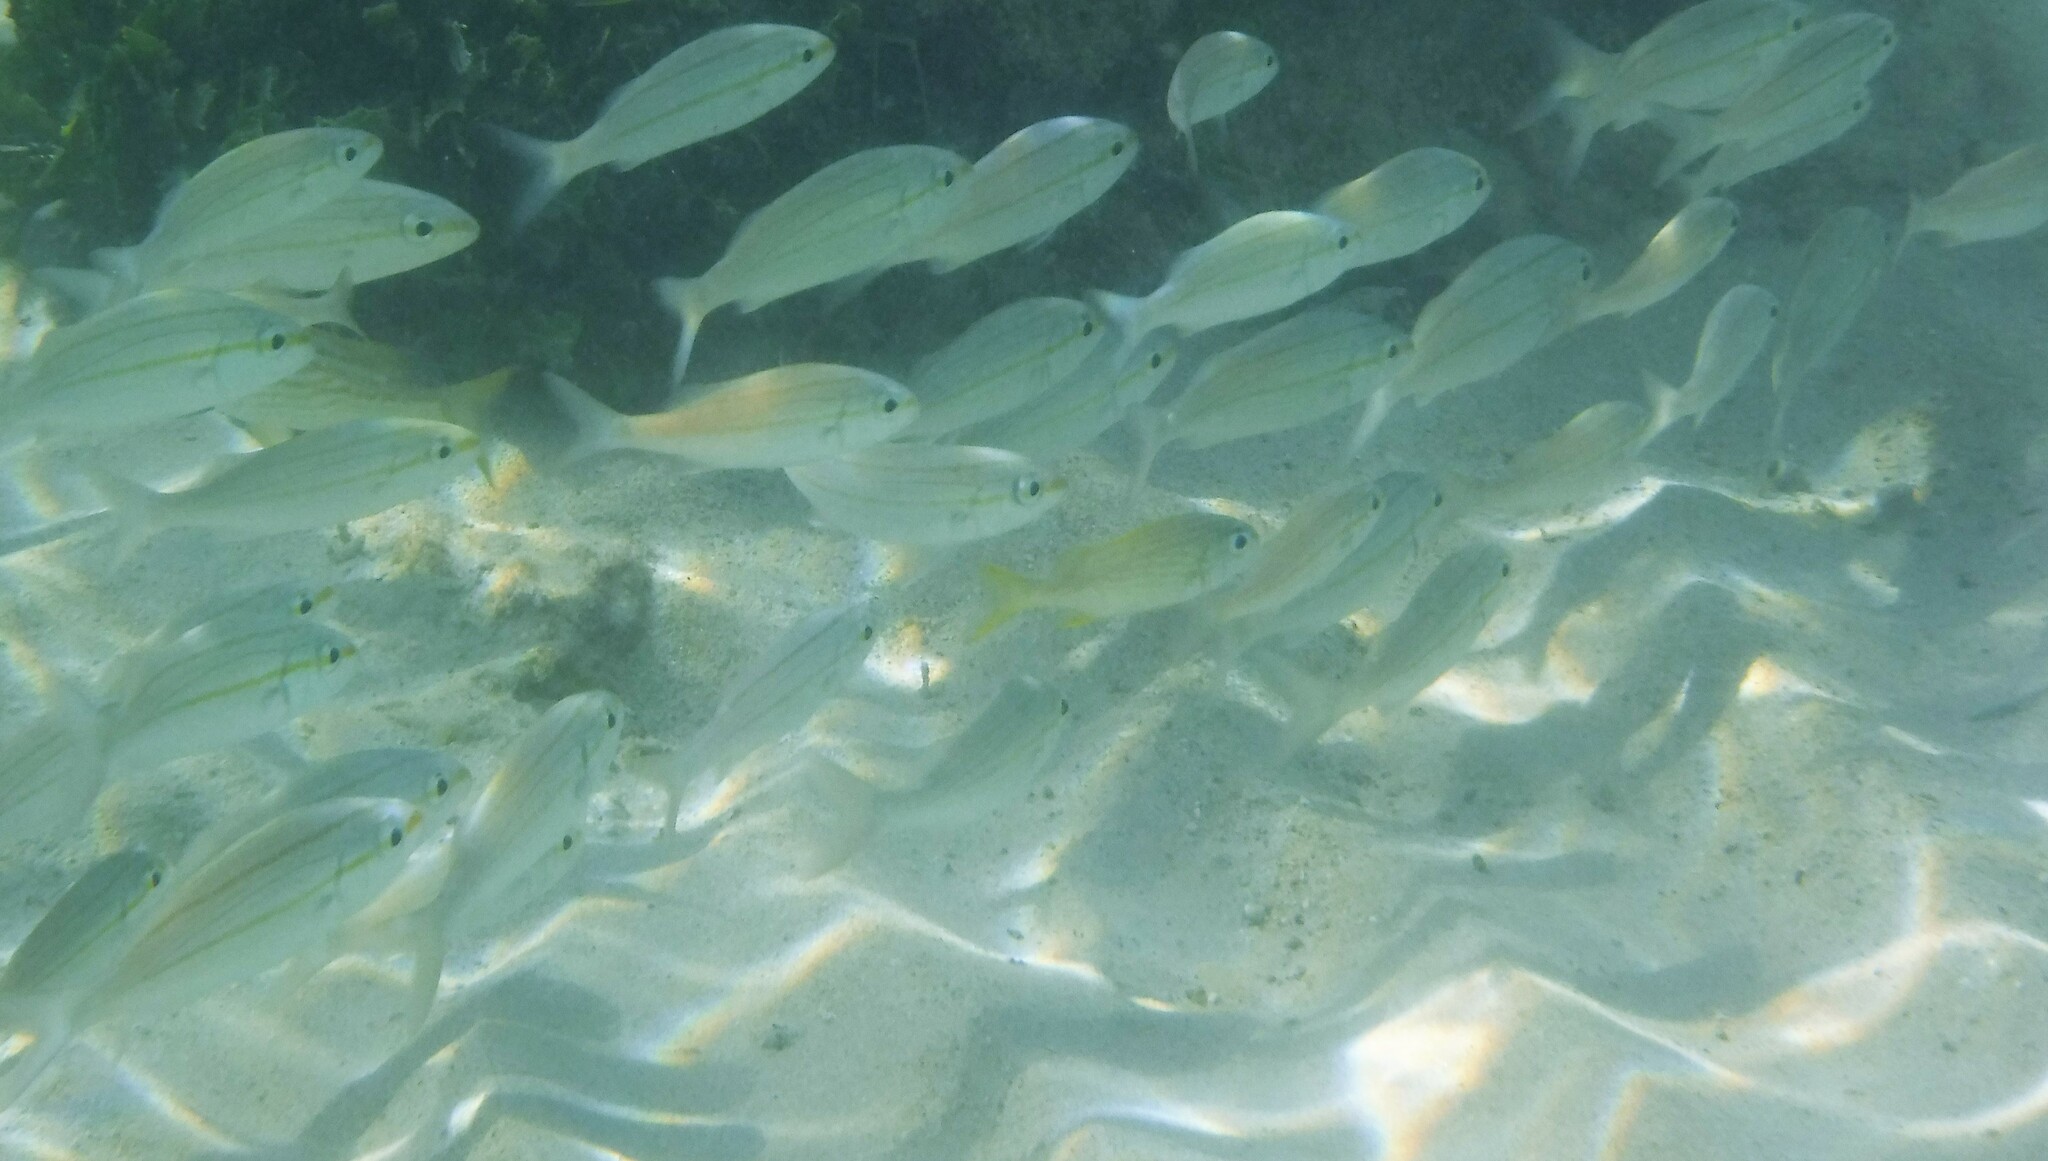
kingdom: Animalia
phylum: Chordata
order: Perciformes
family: Haemulidae
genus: Haemulon
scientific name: Haemulon aurolineatum
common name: Tomtate
